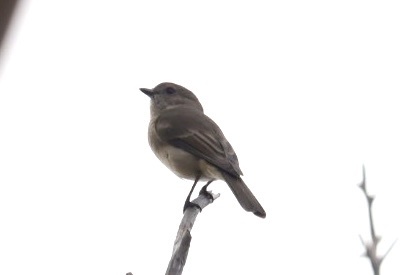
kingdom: Animalia
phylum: Chordata
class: Aves
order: Passeriformes
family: Pachycephalidae
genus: Pachycephala
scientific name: Pachycephala pectoralis
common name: Australian golden whistler
